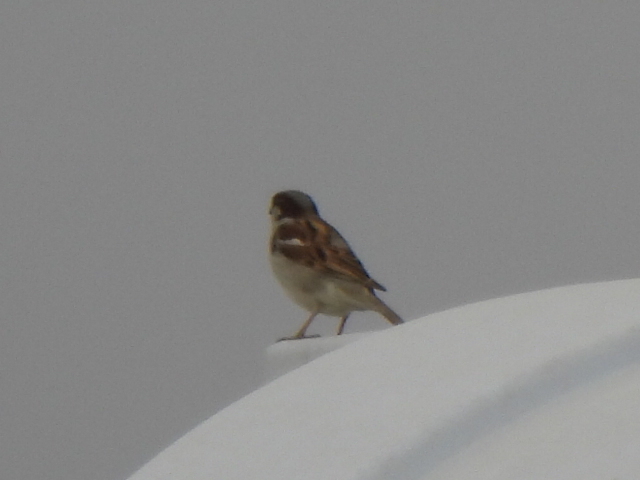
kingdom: Animalia
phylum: Chordata
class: Aves
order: Passeriformes
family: Passeridae
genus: Passer
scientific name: Passer domesticus
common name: House sparrow
